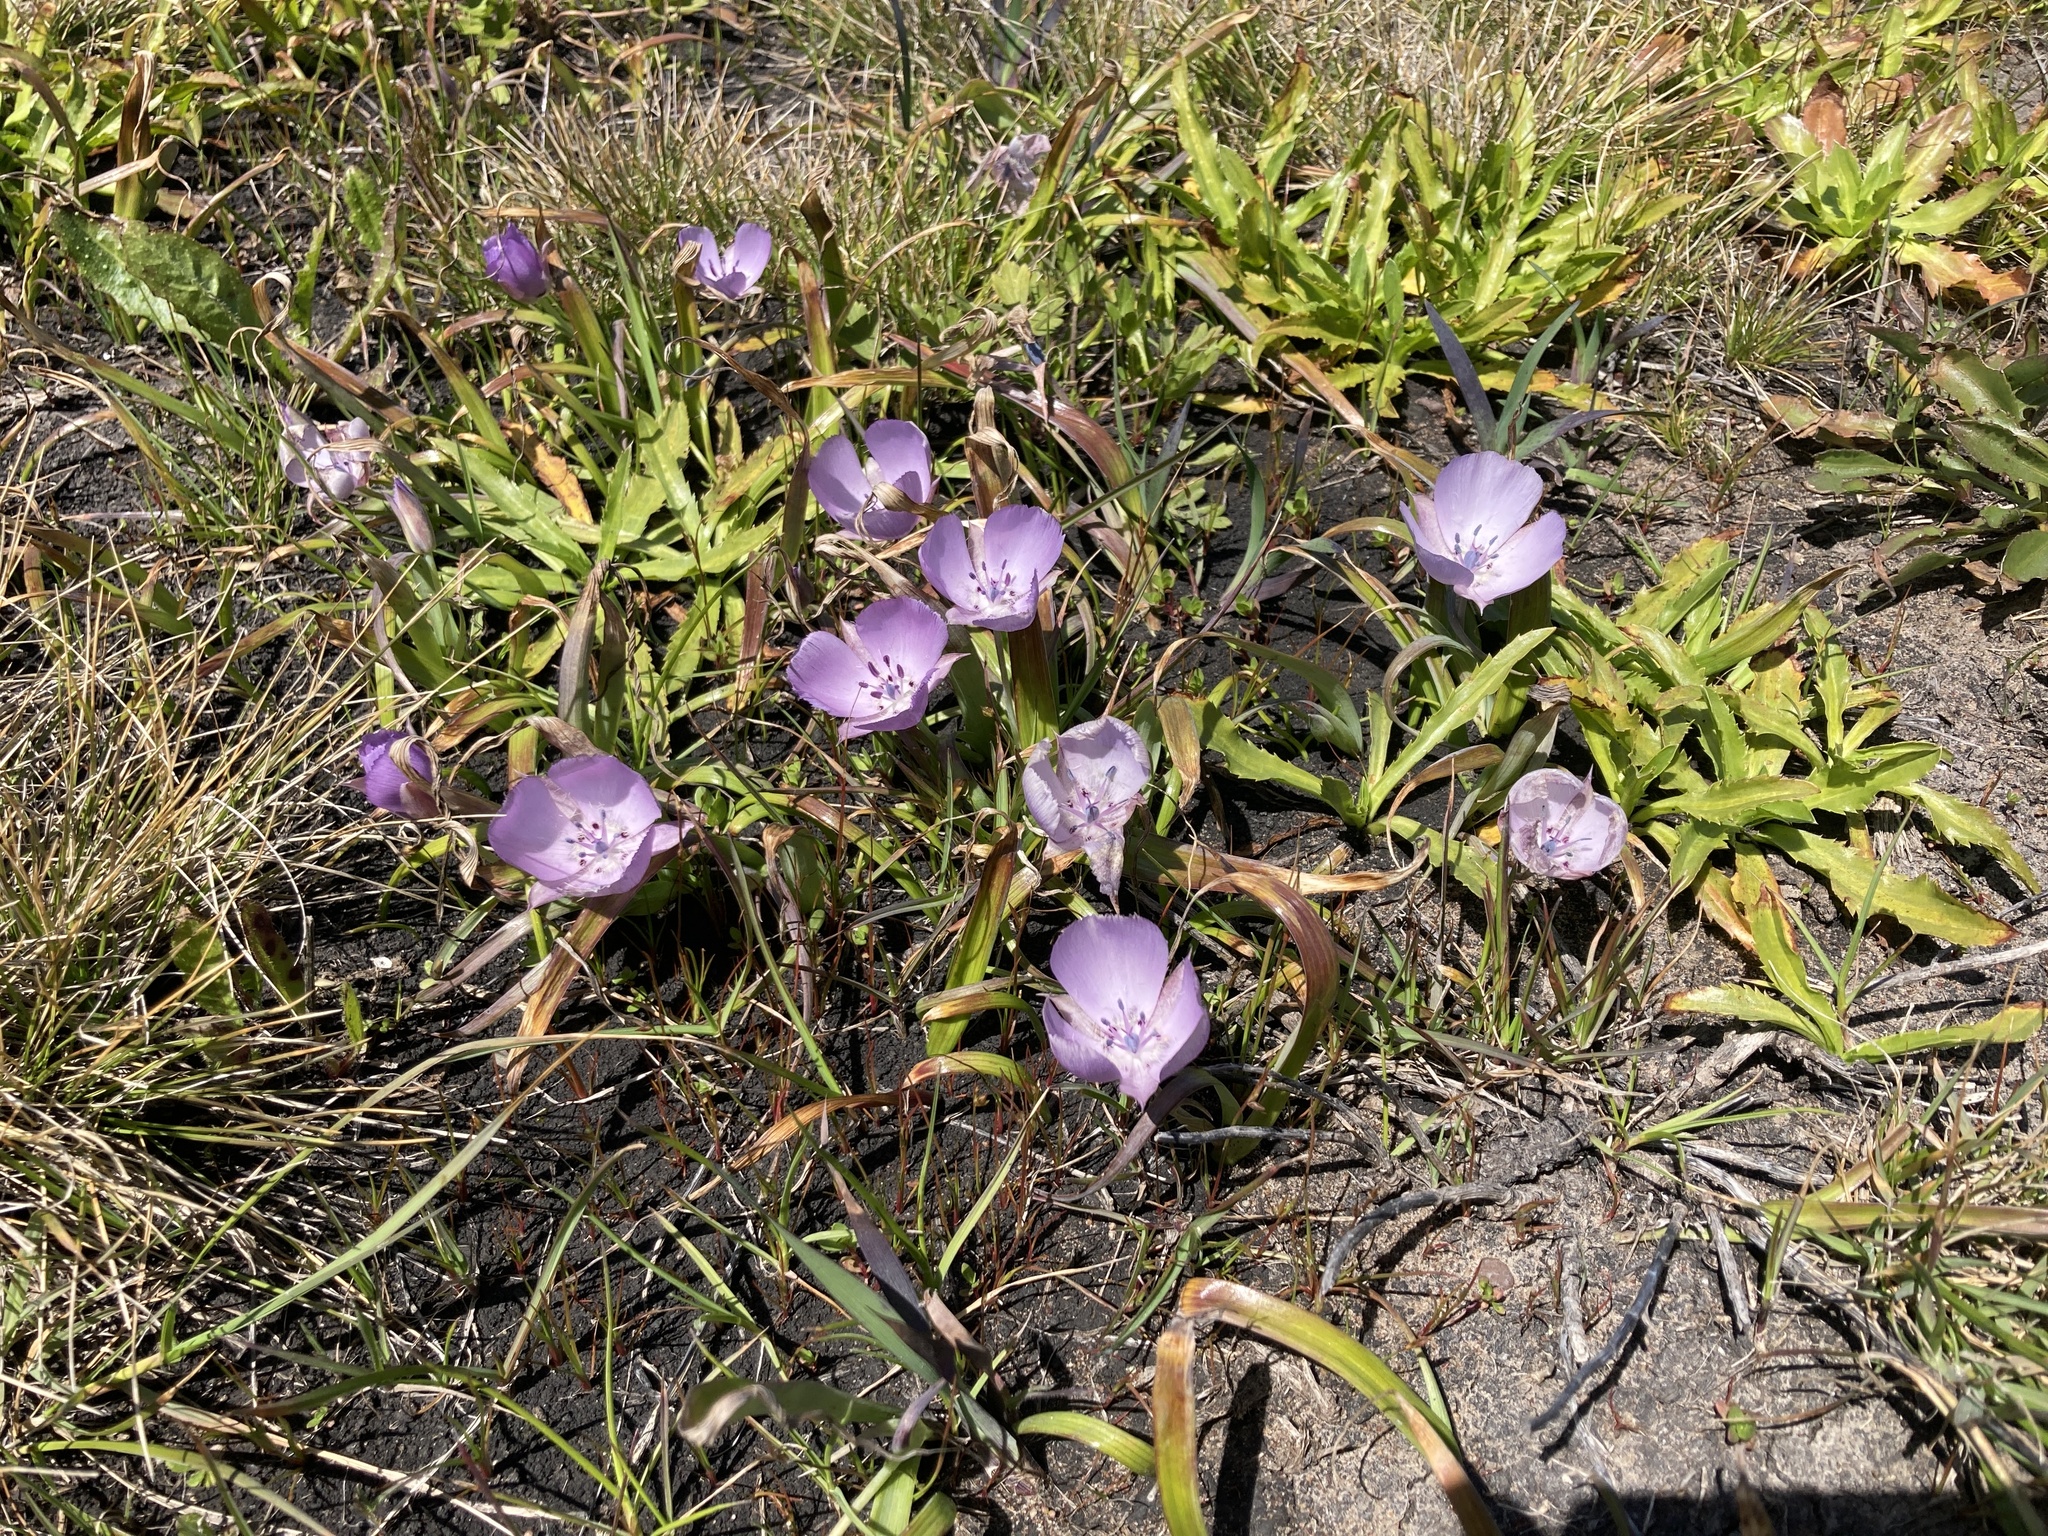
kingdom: Plantae
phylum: Tracheophyta
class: Liliopsida
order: Liliales
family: Liliaceae
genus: Calochortus
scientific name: Calochortus uniflorus
